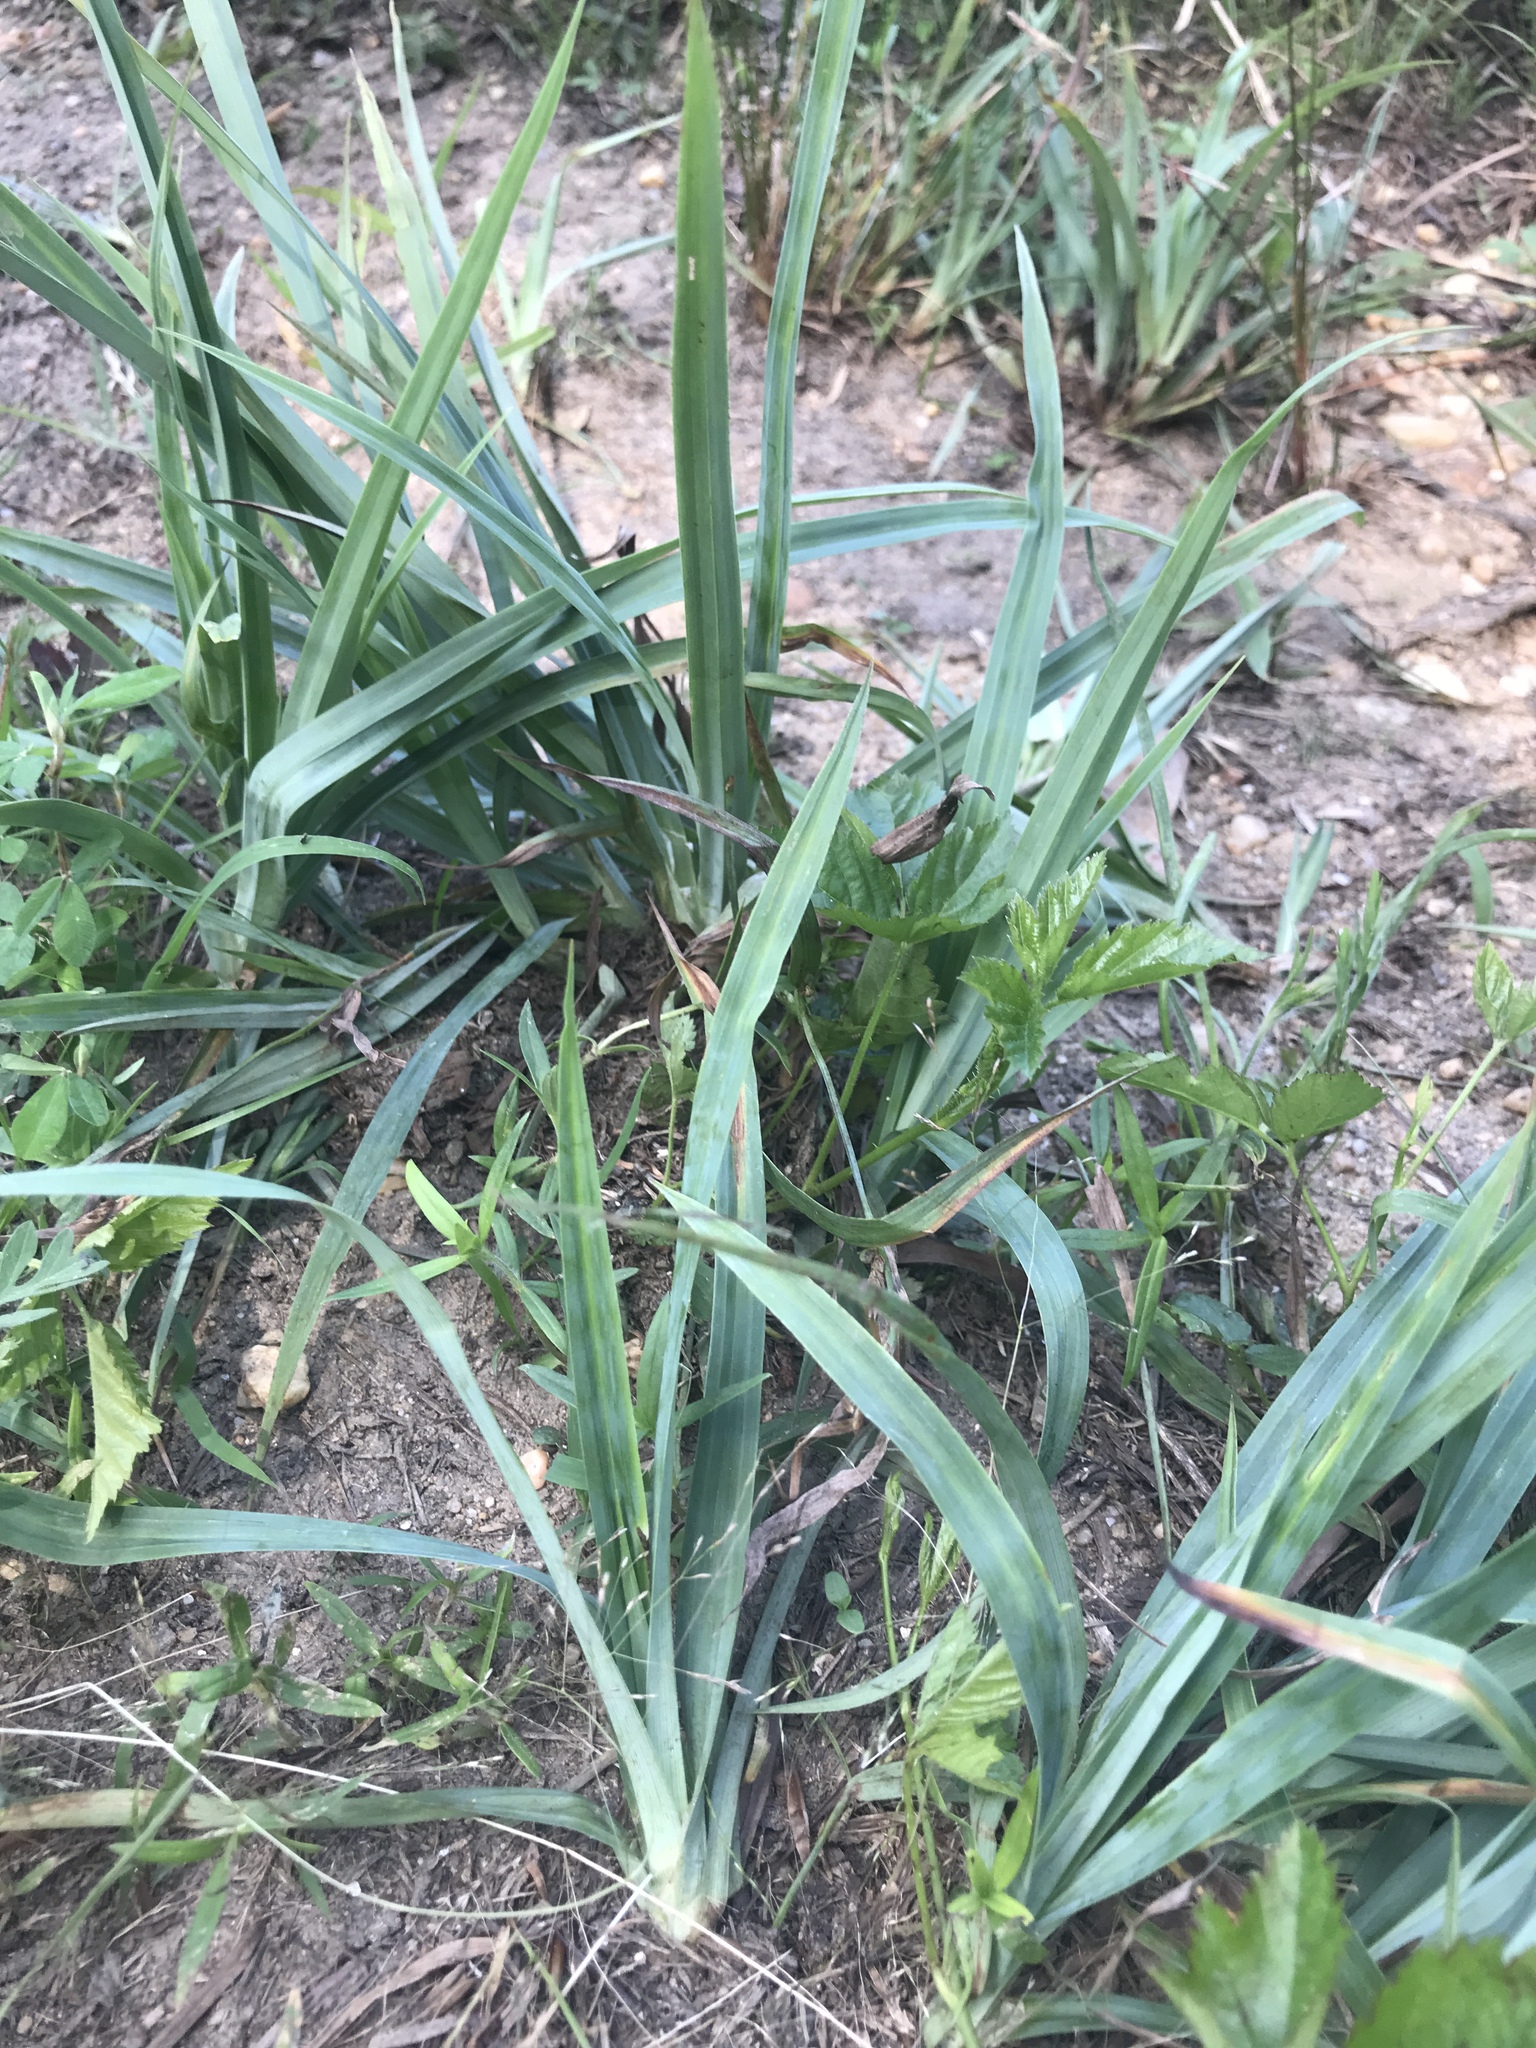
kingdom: Plantae
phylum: Tracheophyta
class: Liliopsida
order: Poales
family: Cyperaceae
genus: Carex
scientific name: Carex glaucodea
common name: Blue sedge
